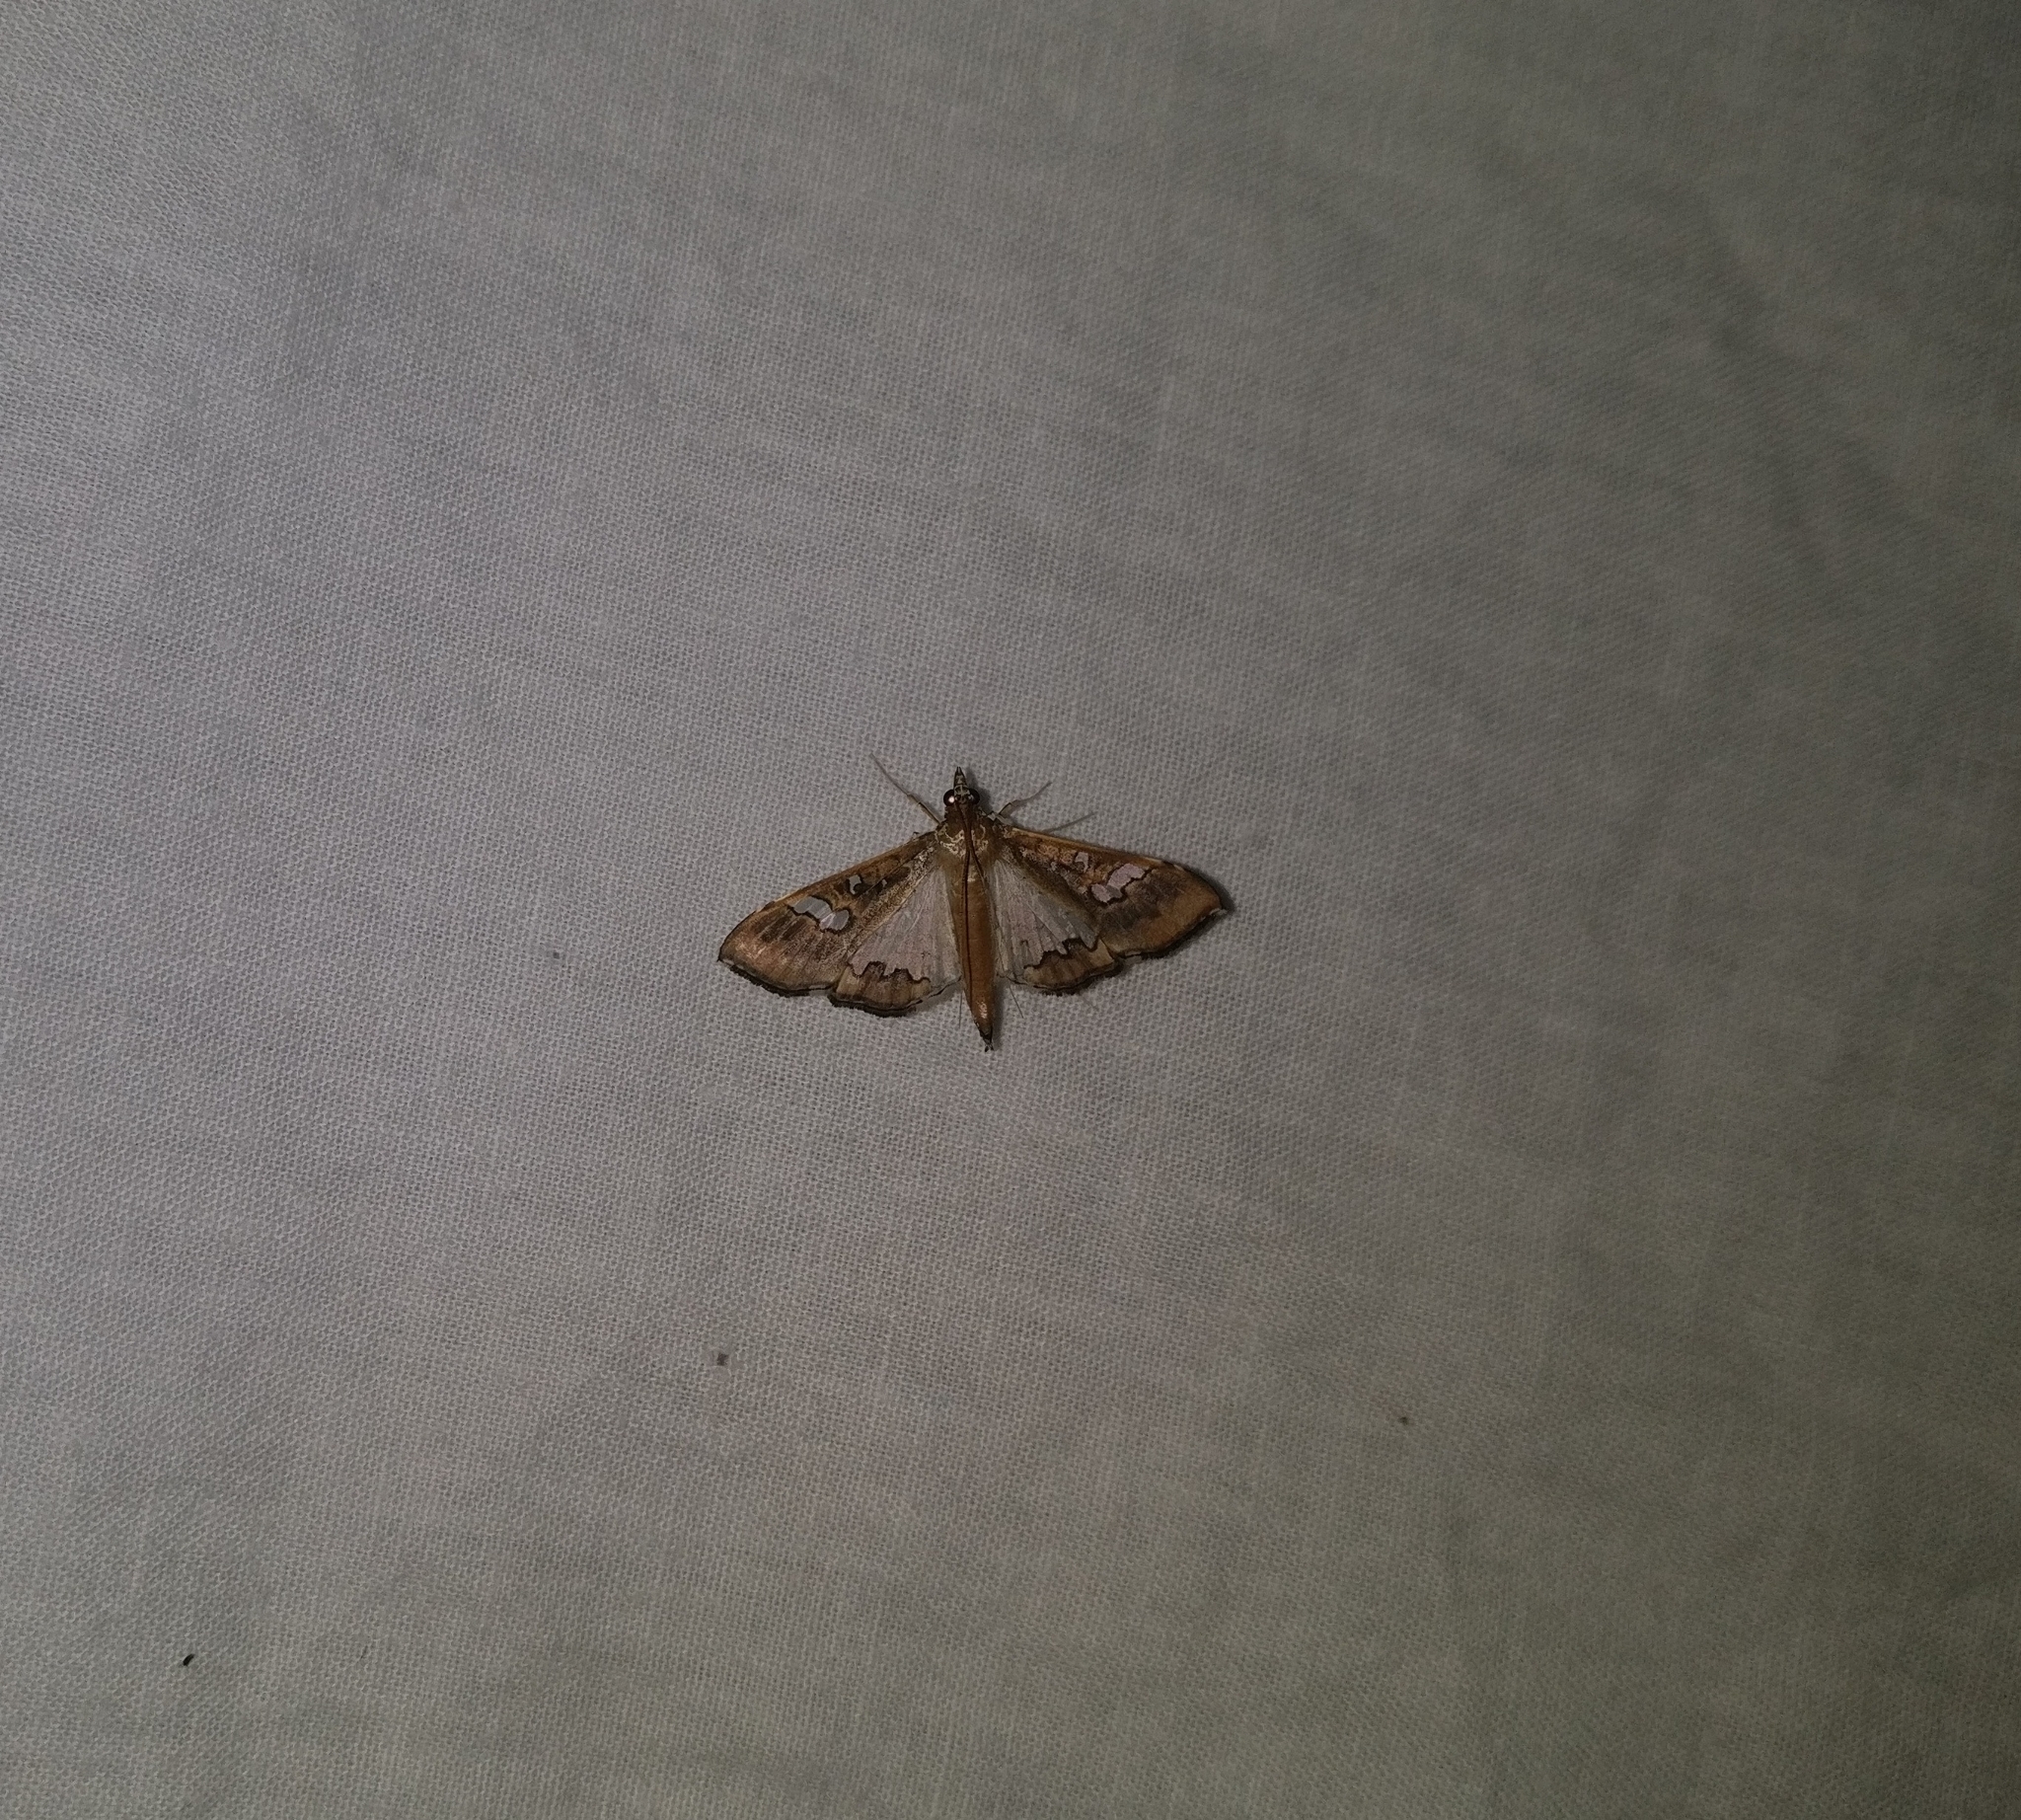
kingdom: Animalia
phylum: Arthropoda
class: Insecta
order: Lepidoptera
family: Crambidae
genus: Maruca
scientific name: Maruca vitrata
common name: Maruca pod borer
